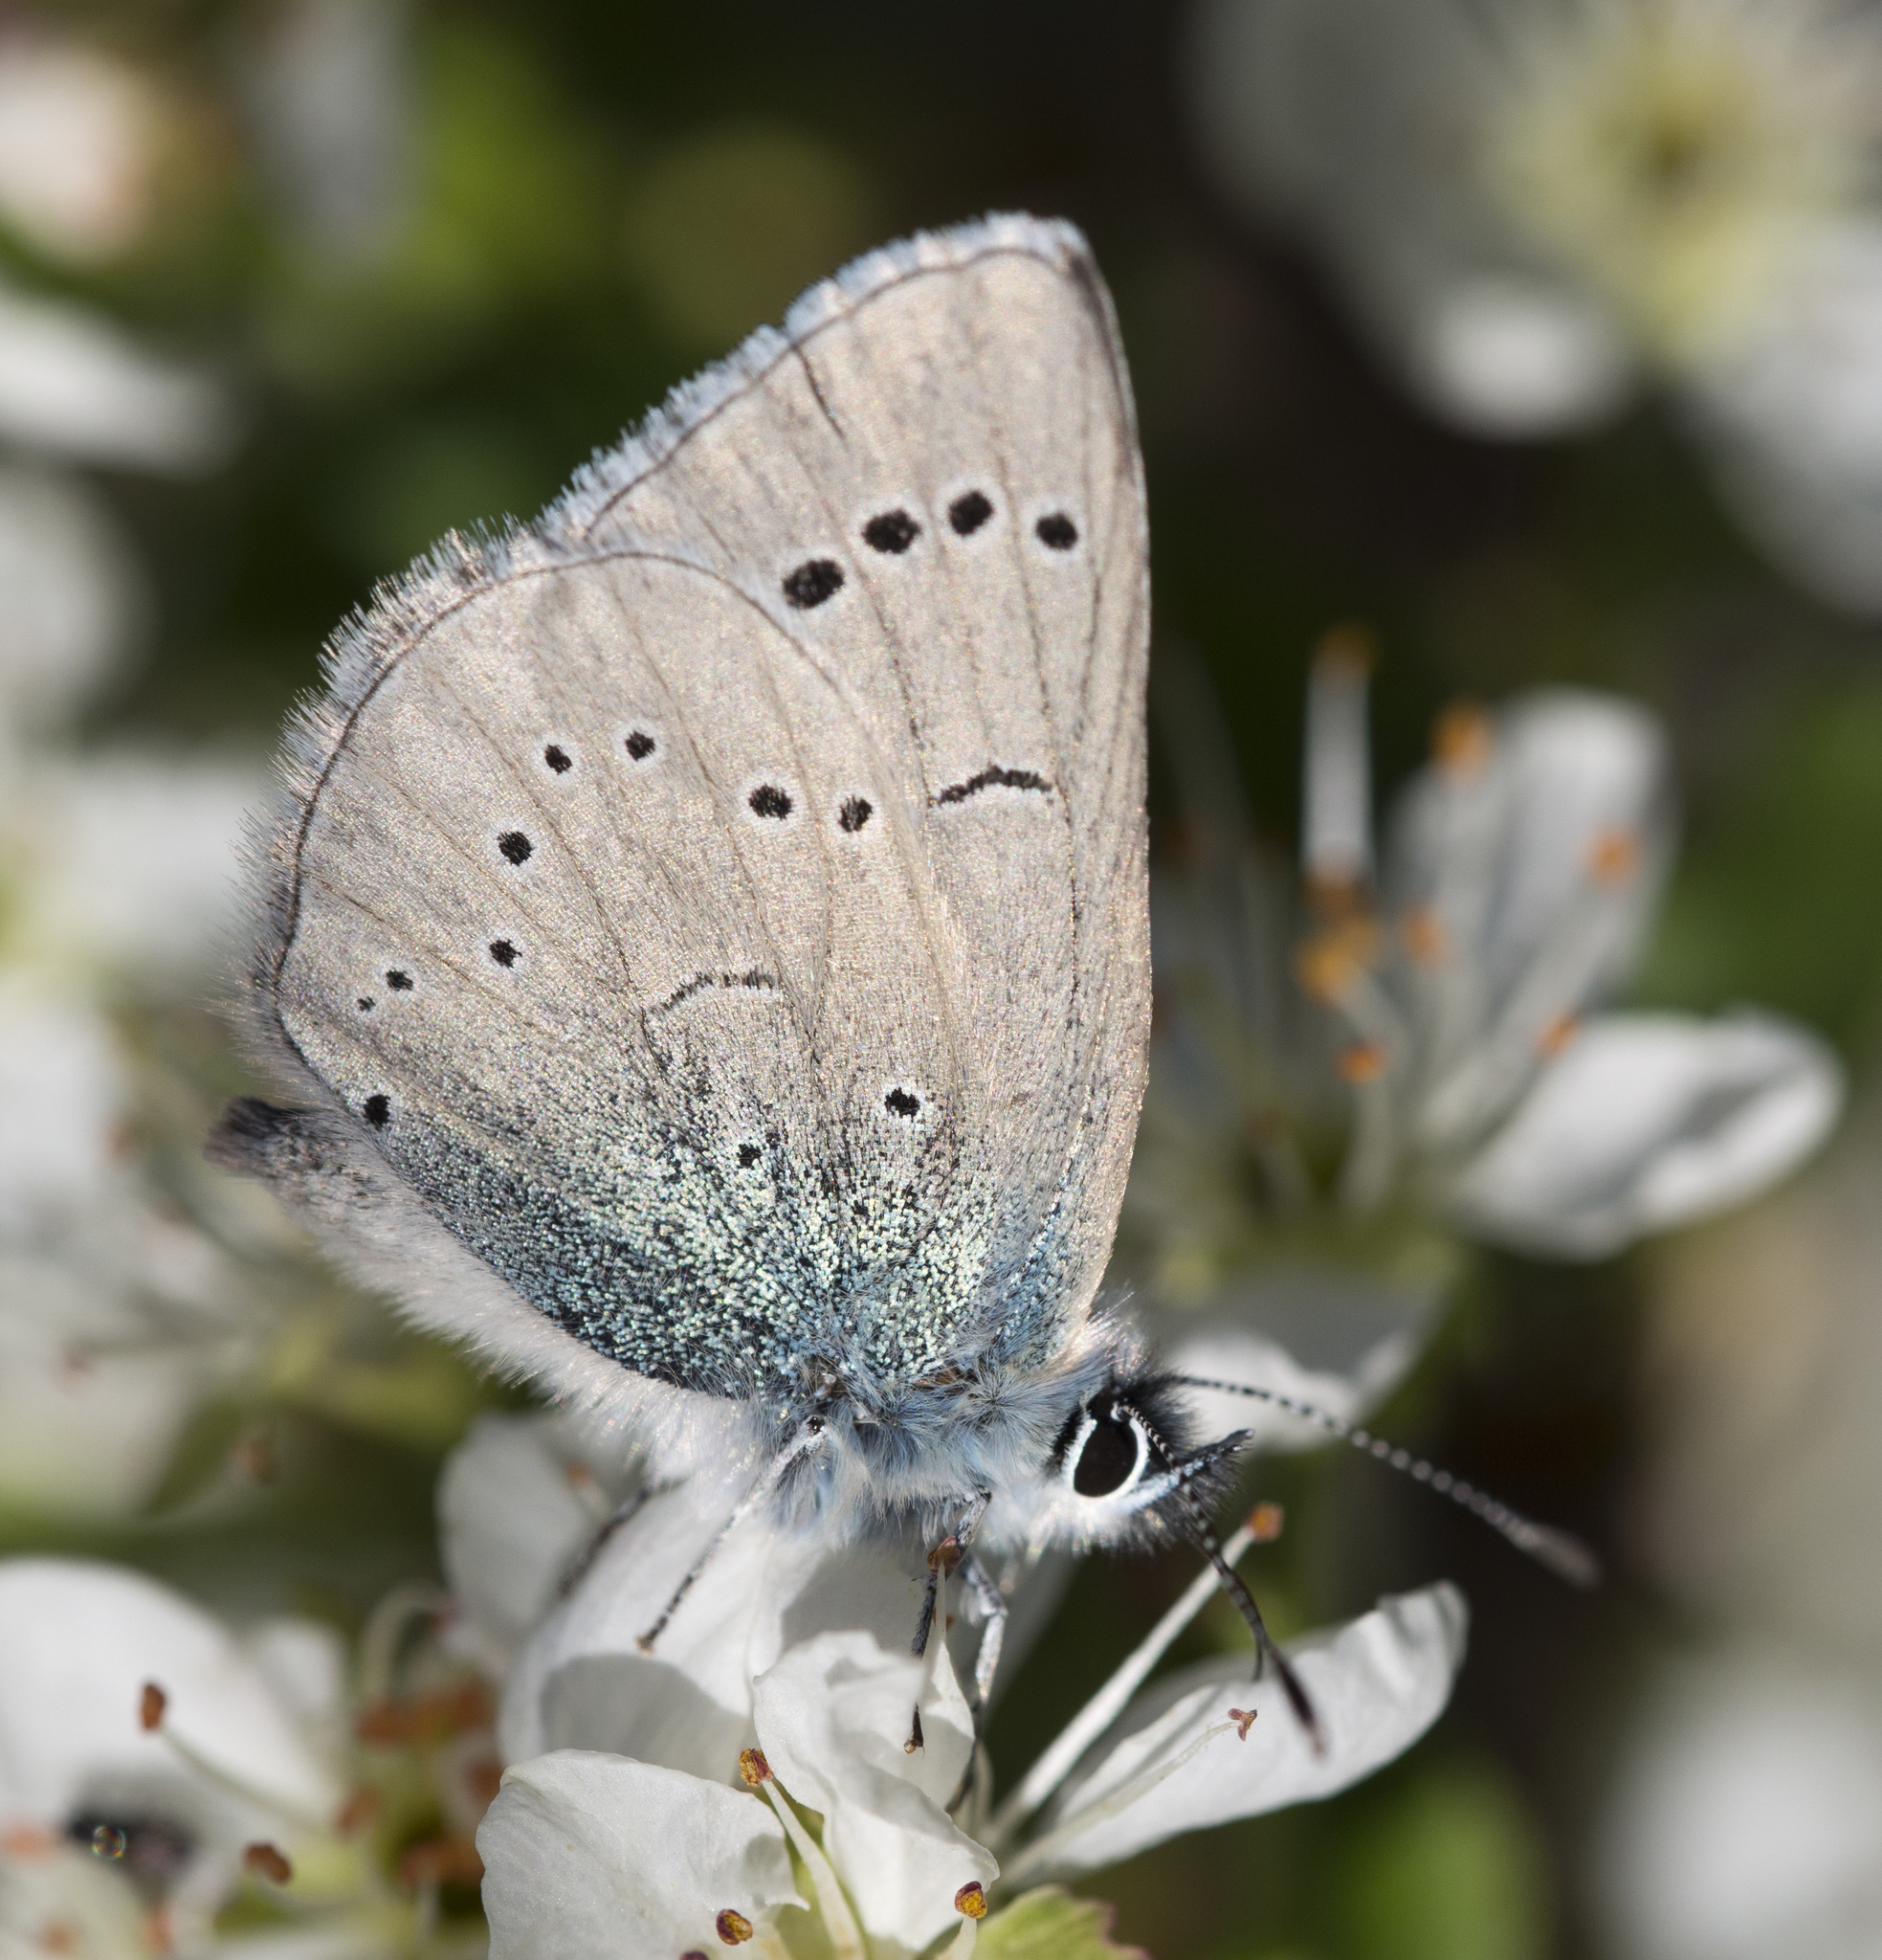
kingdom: Animalia
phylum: Arthropoda
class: Insecta
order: Lepidoptera
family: Lycaenidae
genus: Glaucopsyche
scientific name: Glaucopsyche lygdamus
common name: Silvery blue
